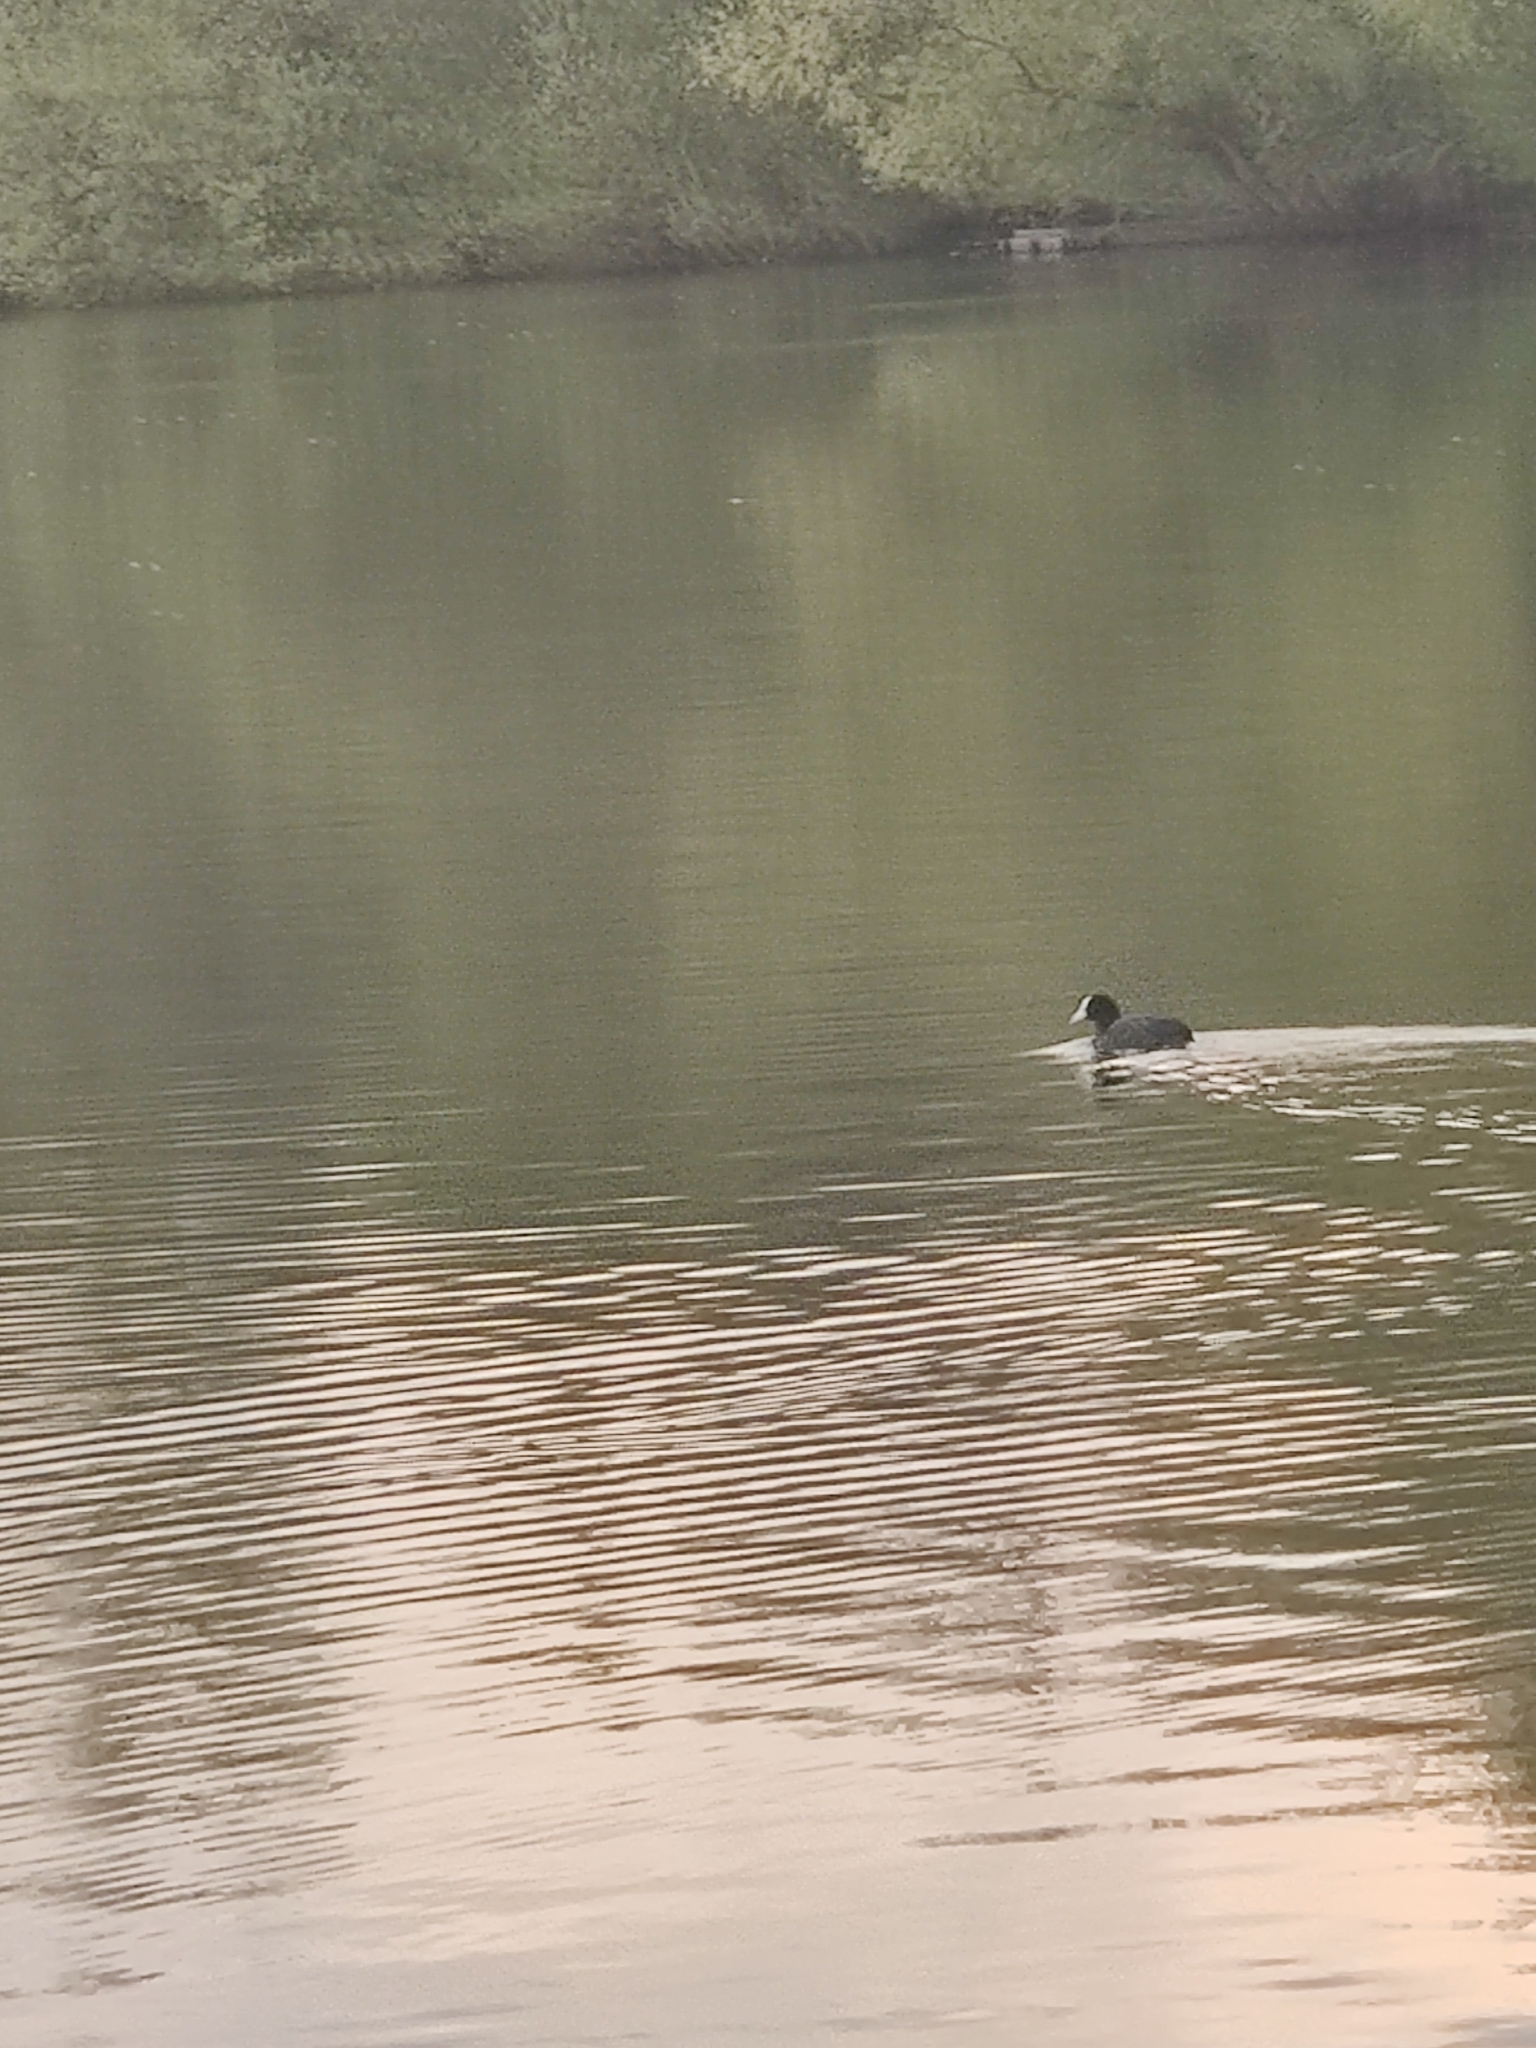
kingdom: Animalia
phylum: Chordata
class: Aves
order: Gruiformes
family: Rallidae
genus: Fulica
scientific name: Fulica atra
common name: Eurasian coot
